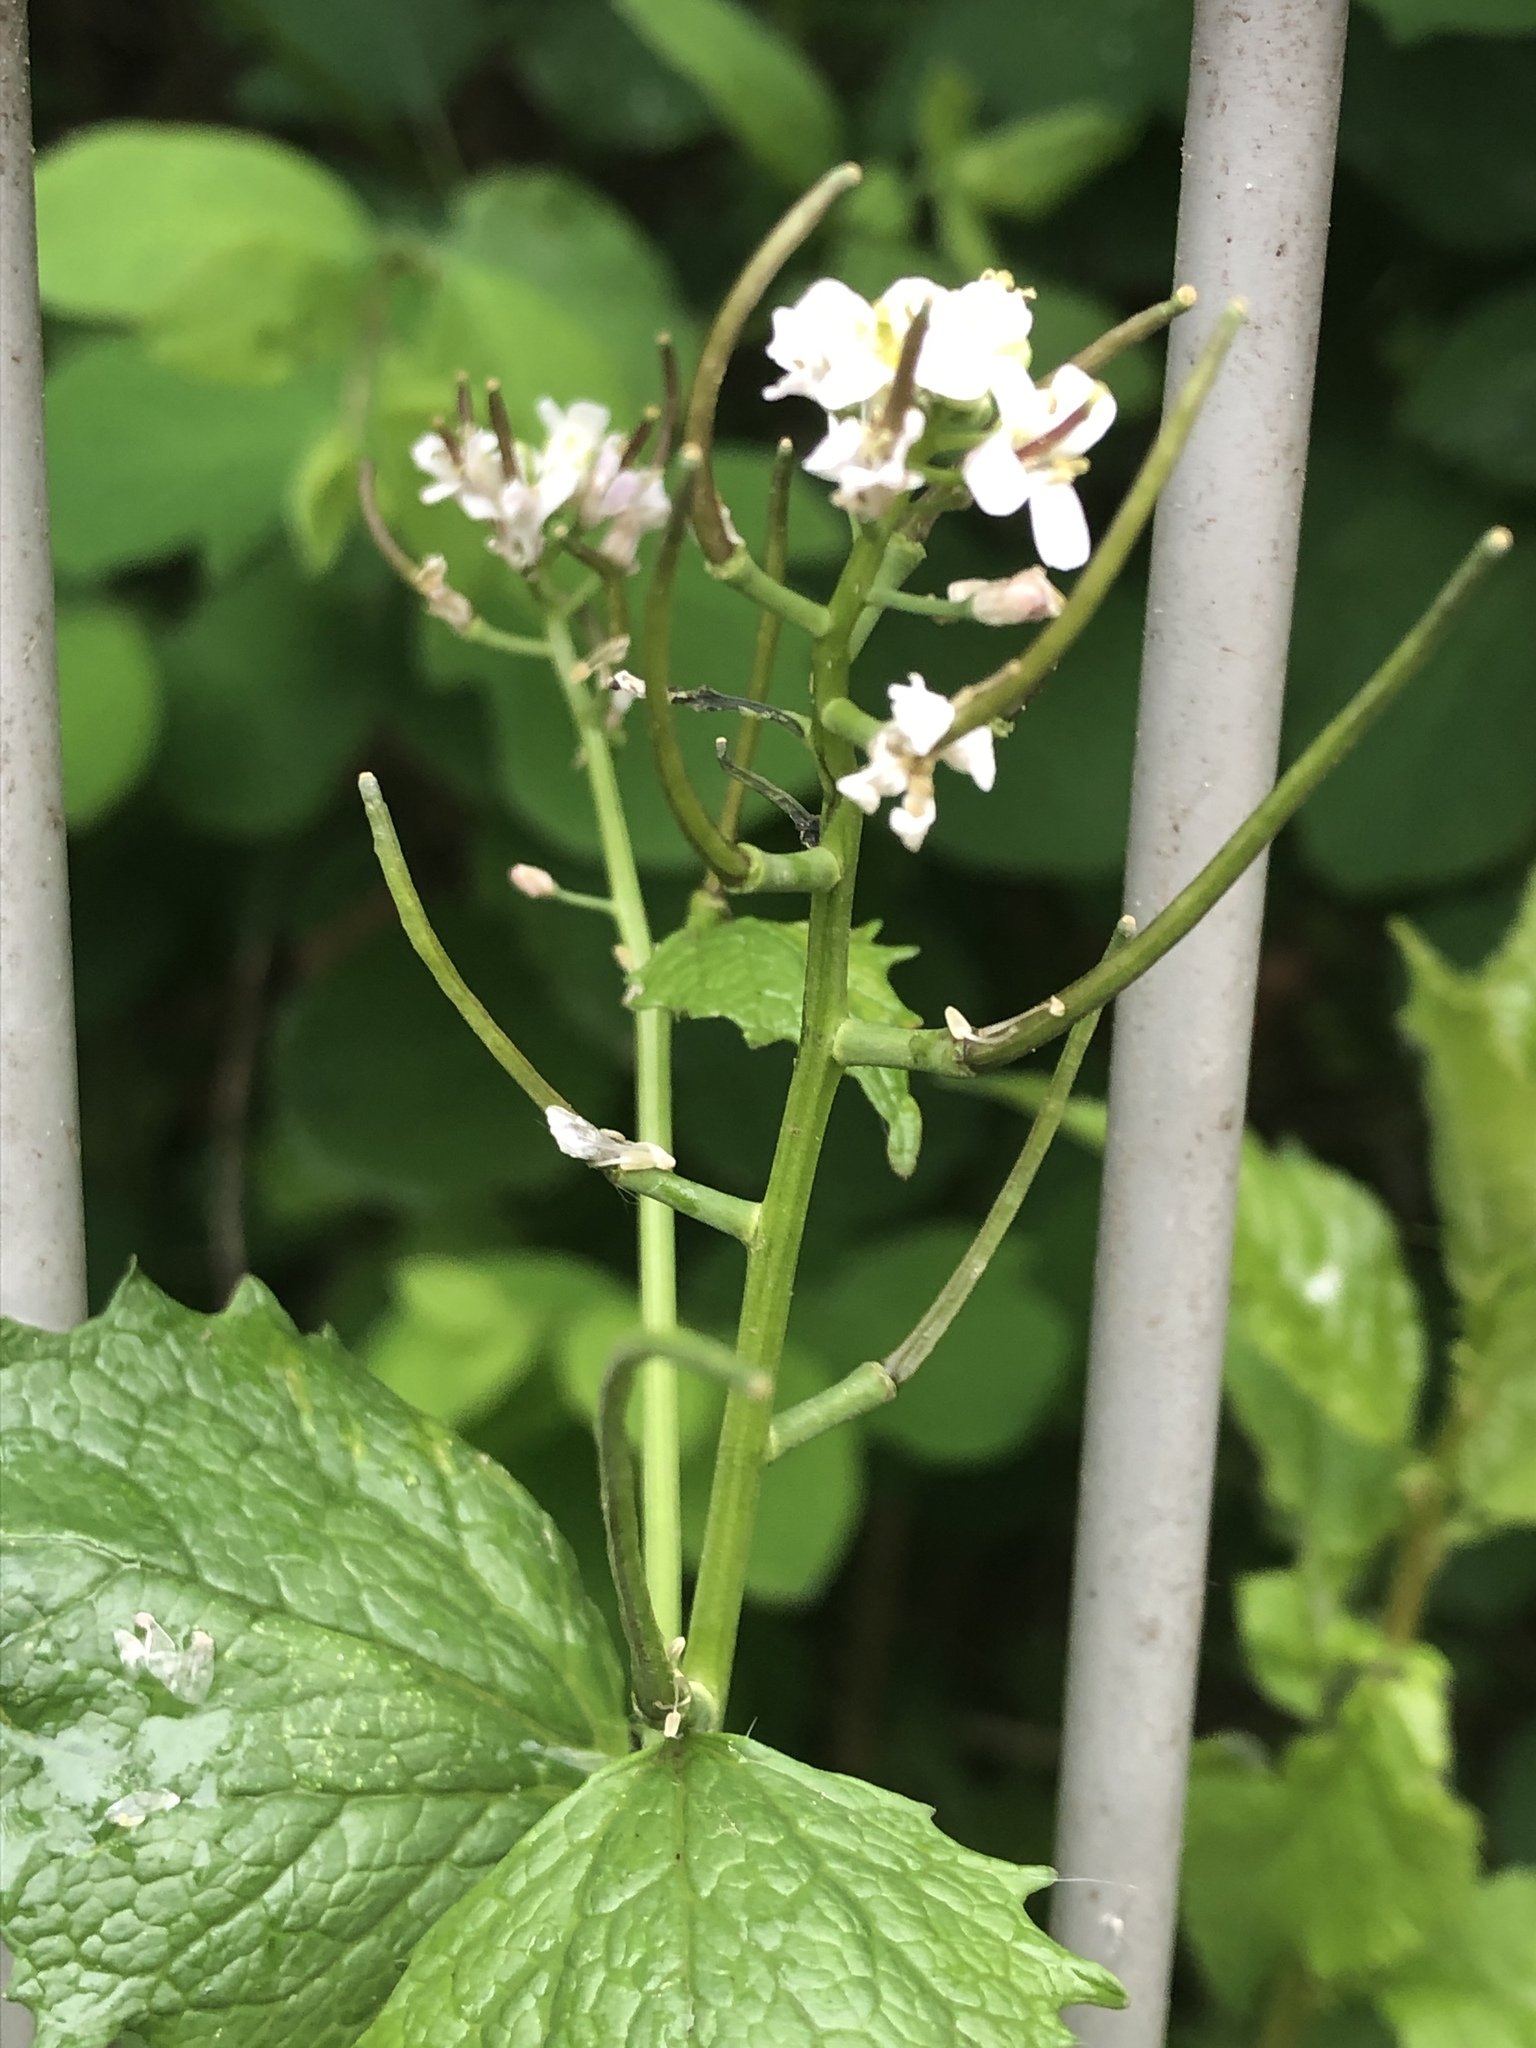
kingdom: Plantae
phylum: Tracheophyta
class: Magnoliopsida
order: Brassicales
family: Brassicaceae
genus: Alliaria
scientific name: Alliaria petiolata
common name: Garlic mustard
